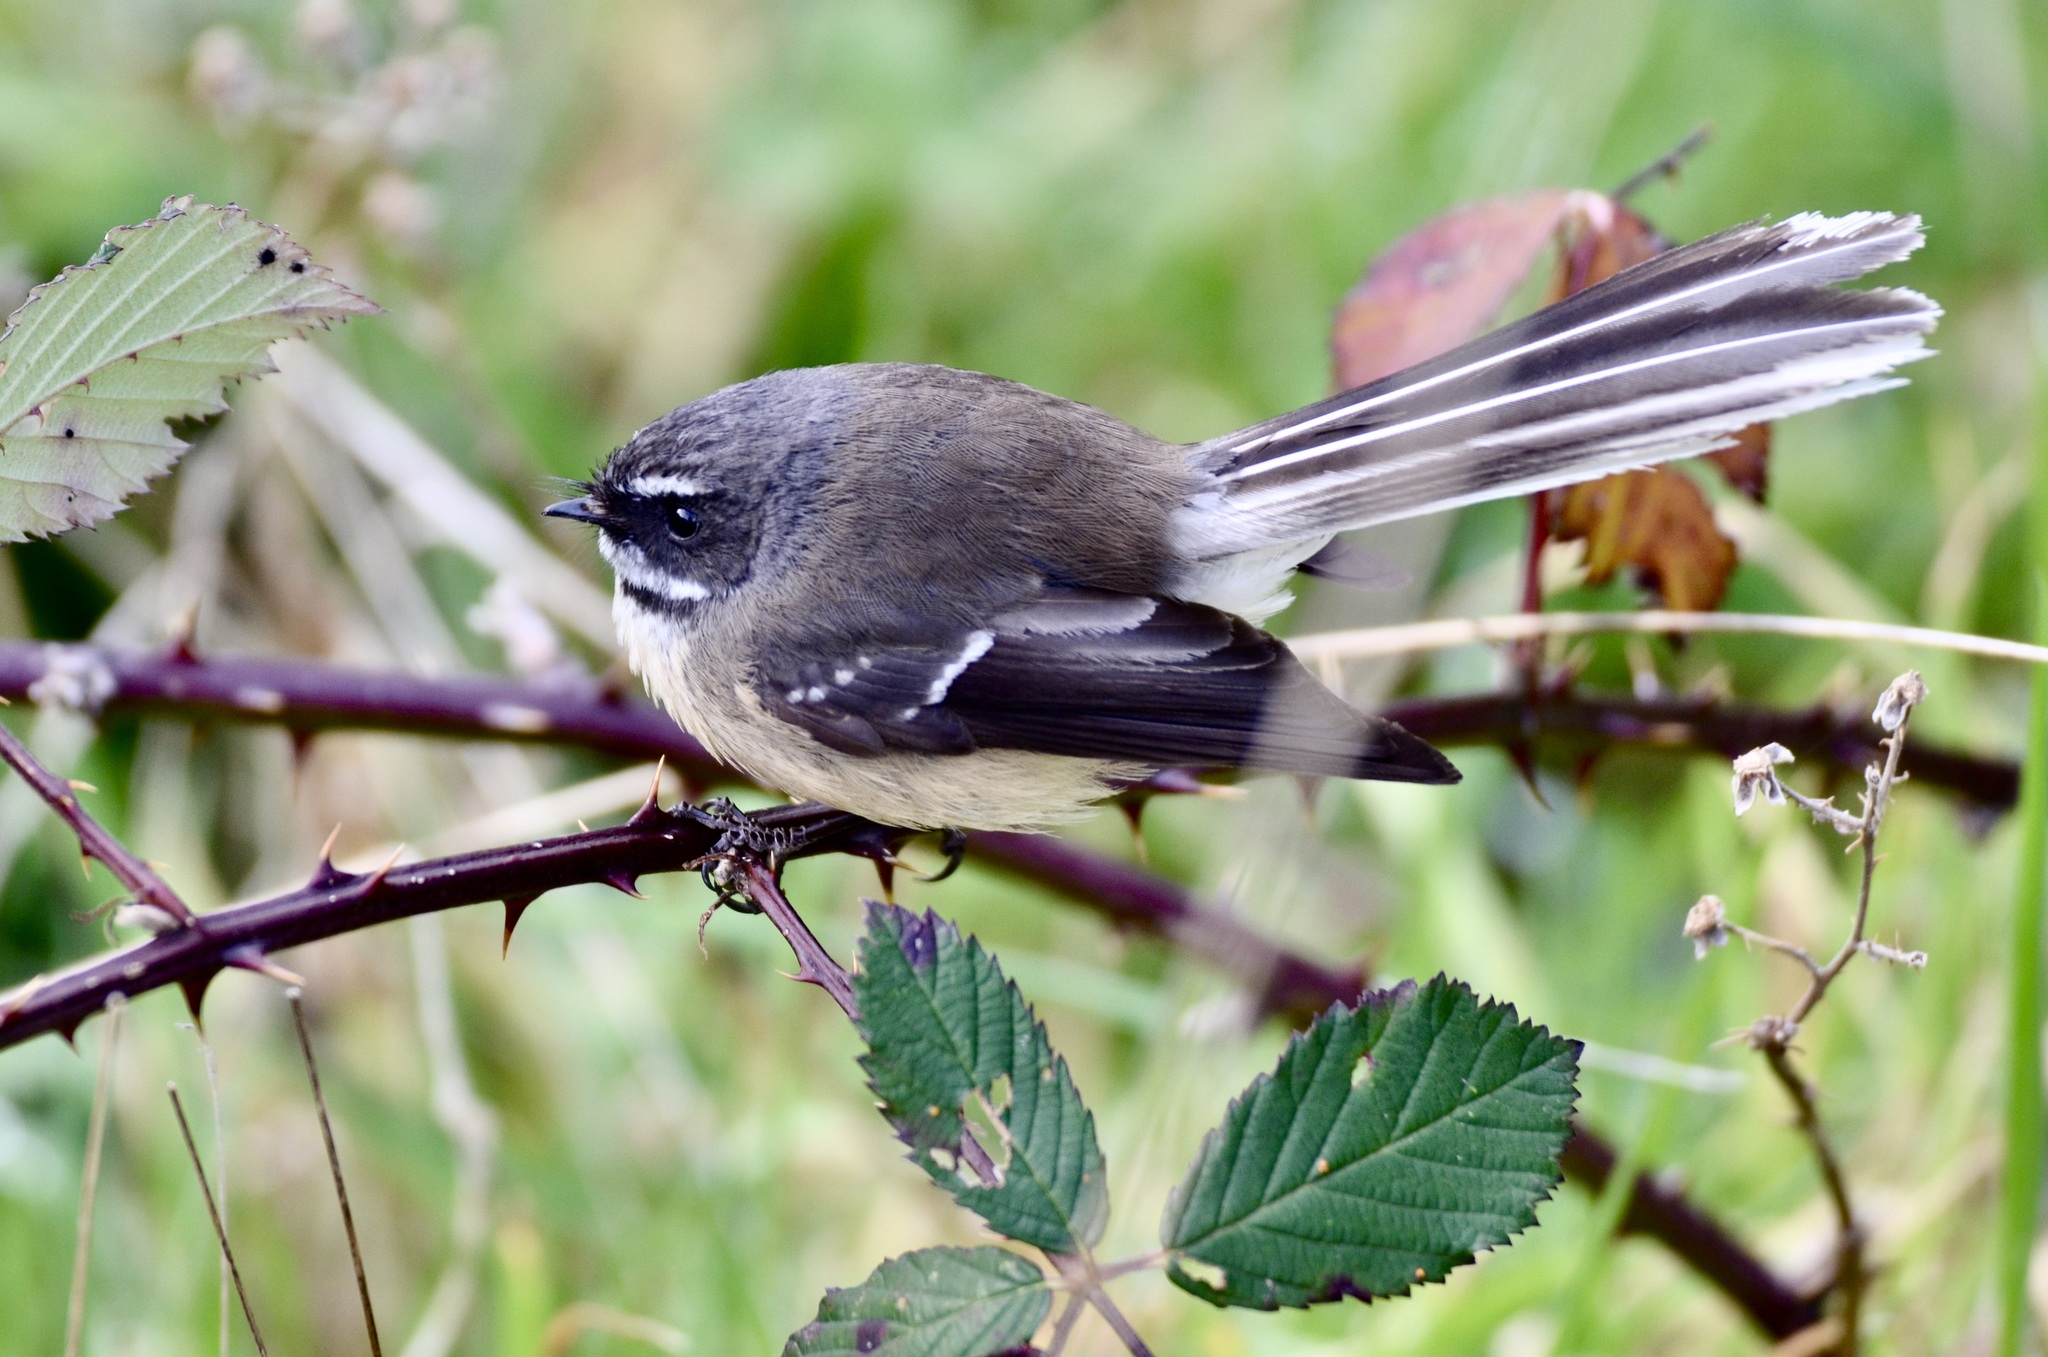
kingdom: Animalia
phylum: Chordata
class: Aves
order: Passeriformes
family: Rhipiduridae
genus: Rhipidura
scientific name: Rhipidura fuliginosa
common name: New zealand fantail
